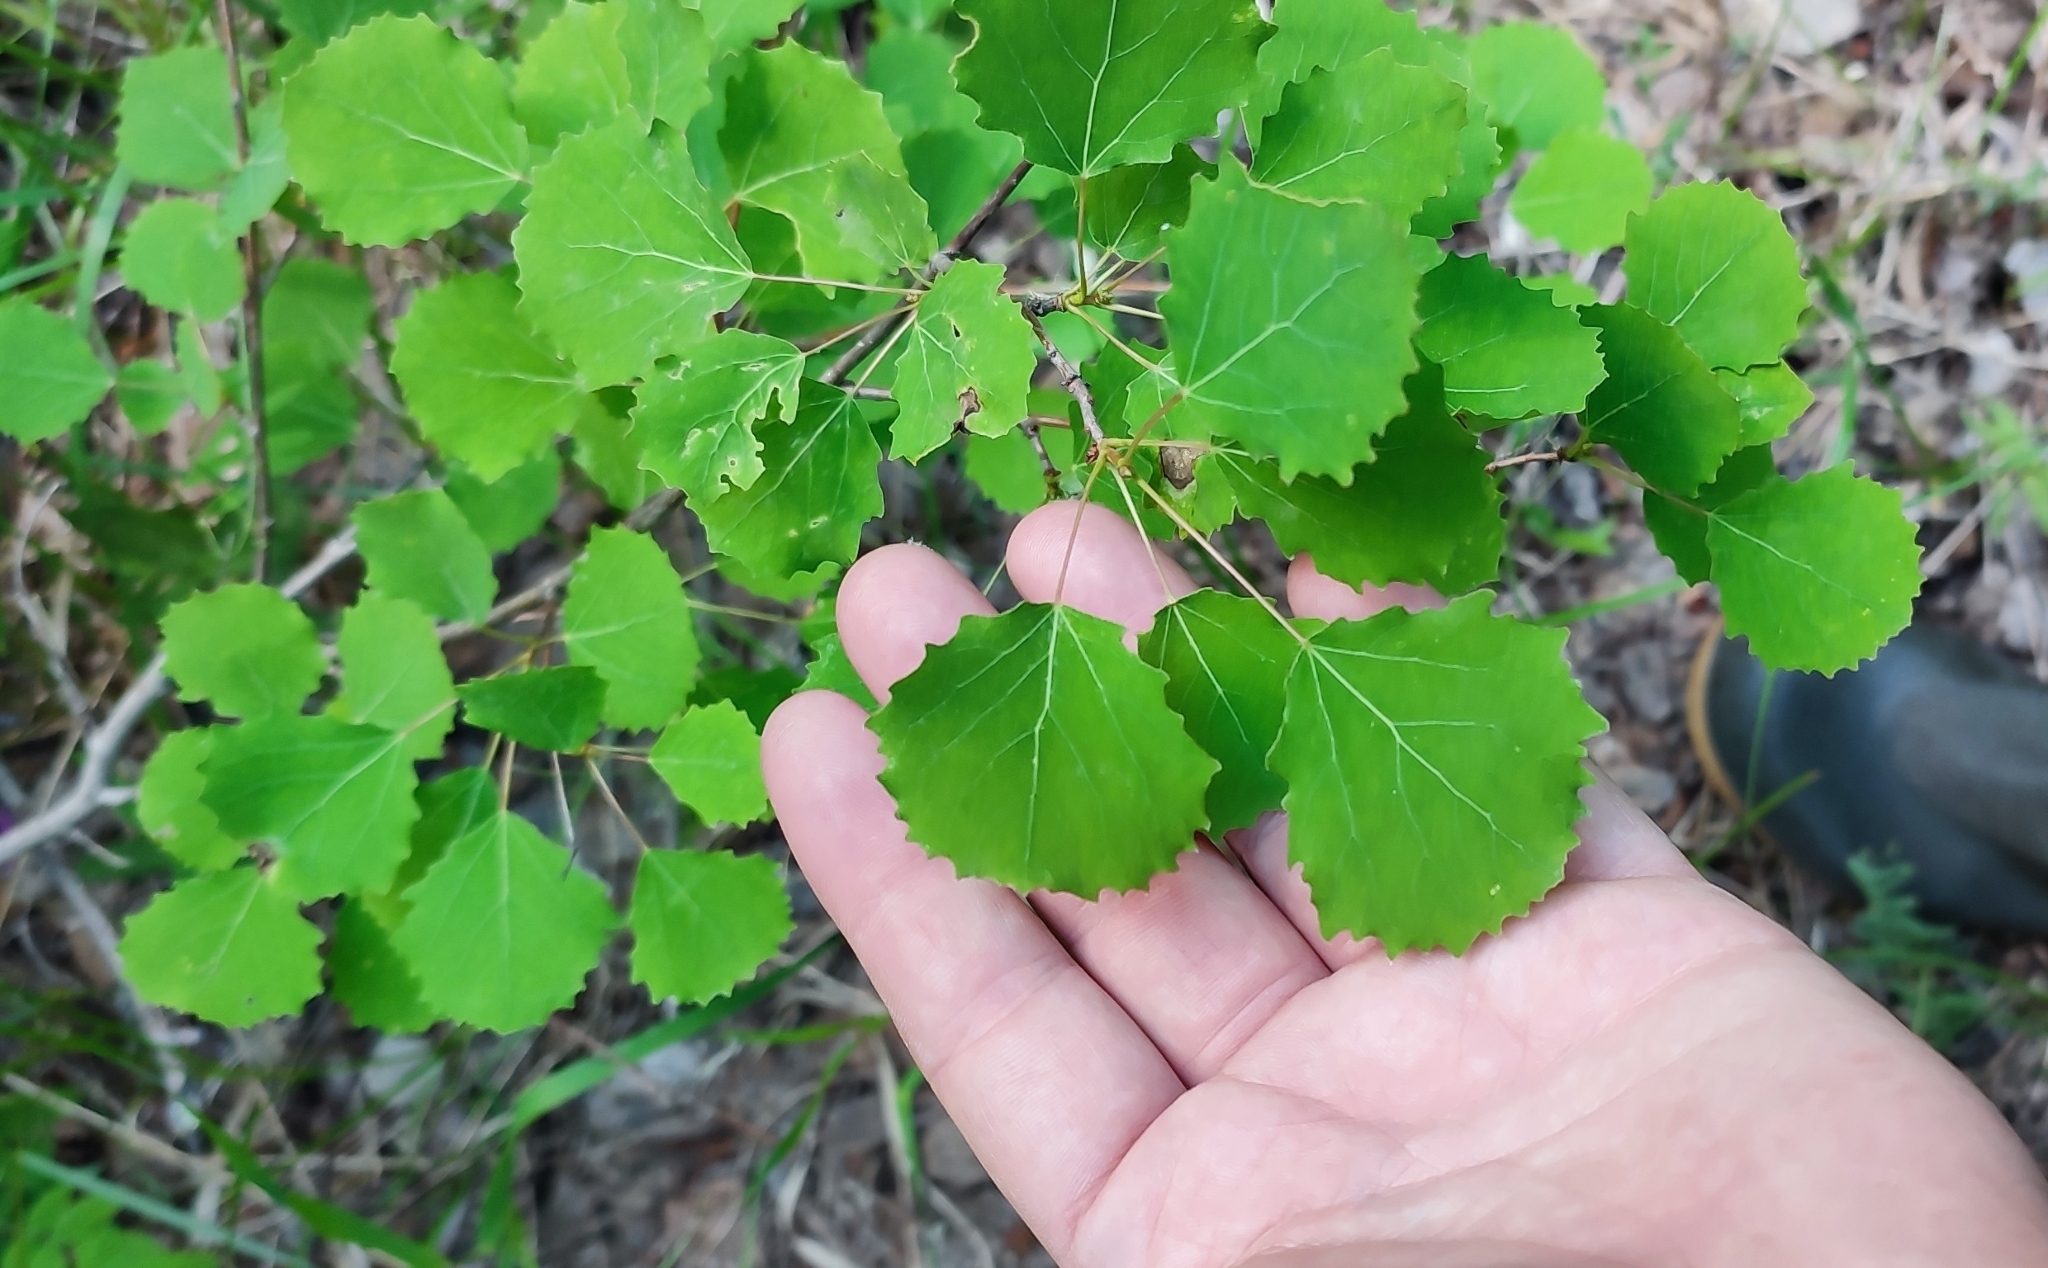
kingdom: Plantae
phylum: Tracheophyta
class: Magnoliopsida
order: Malpighiales
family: Salicaceae
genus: Populus
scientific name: Populus tremula
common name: European aspen
